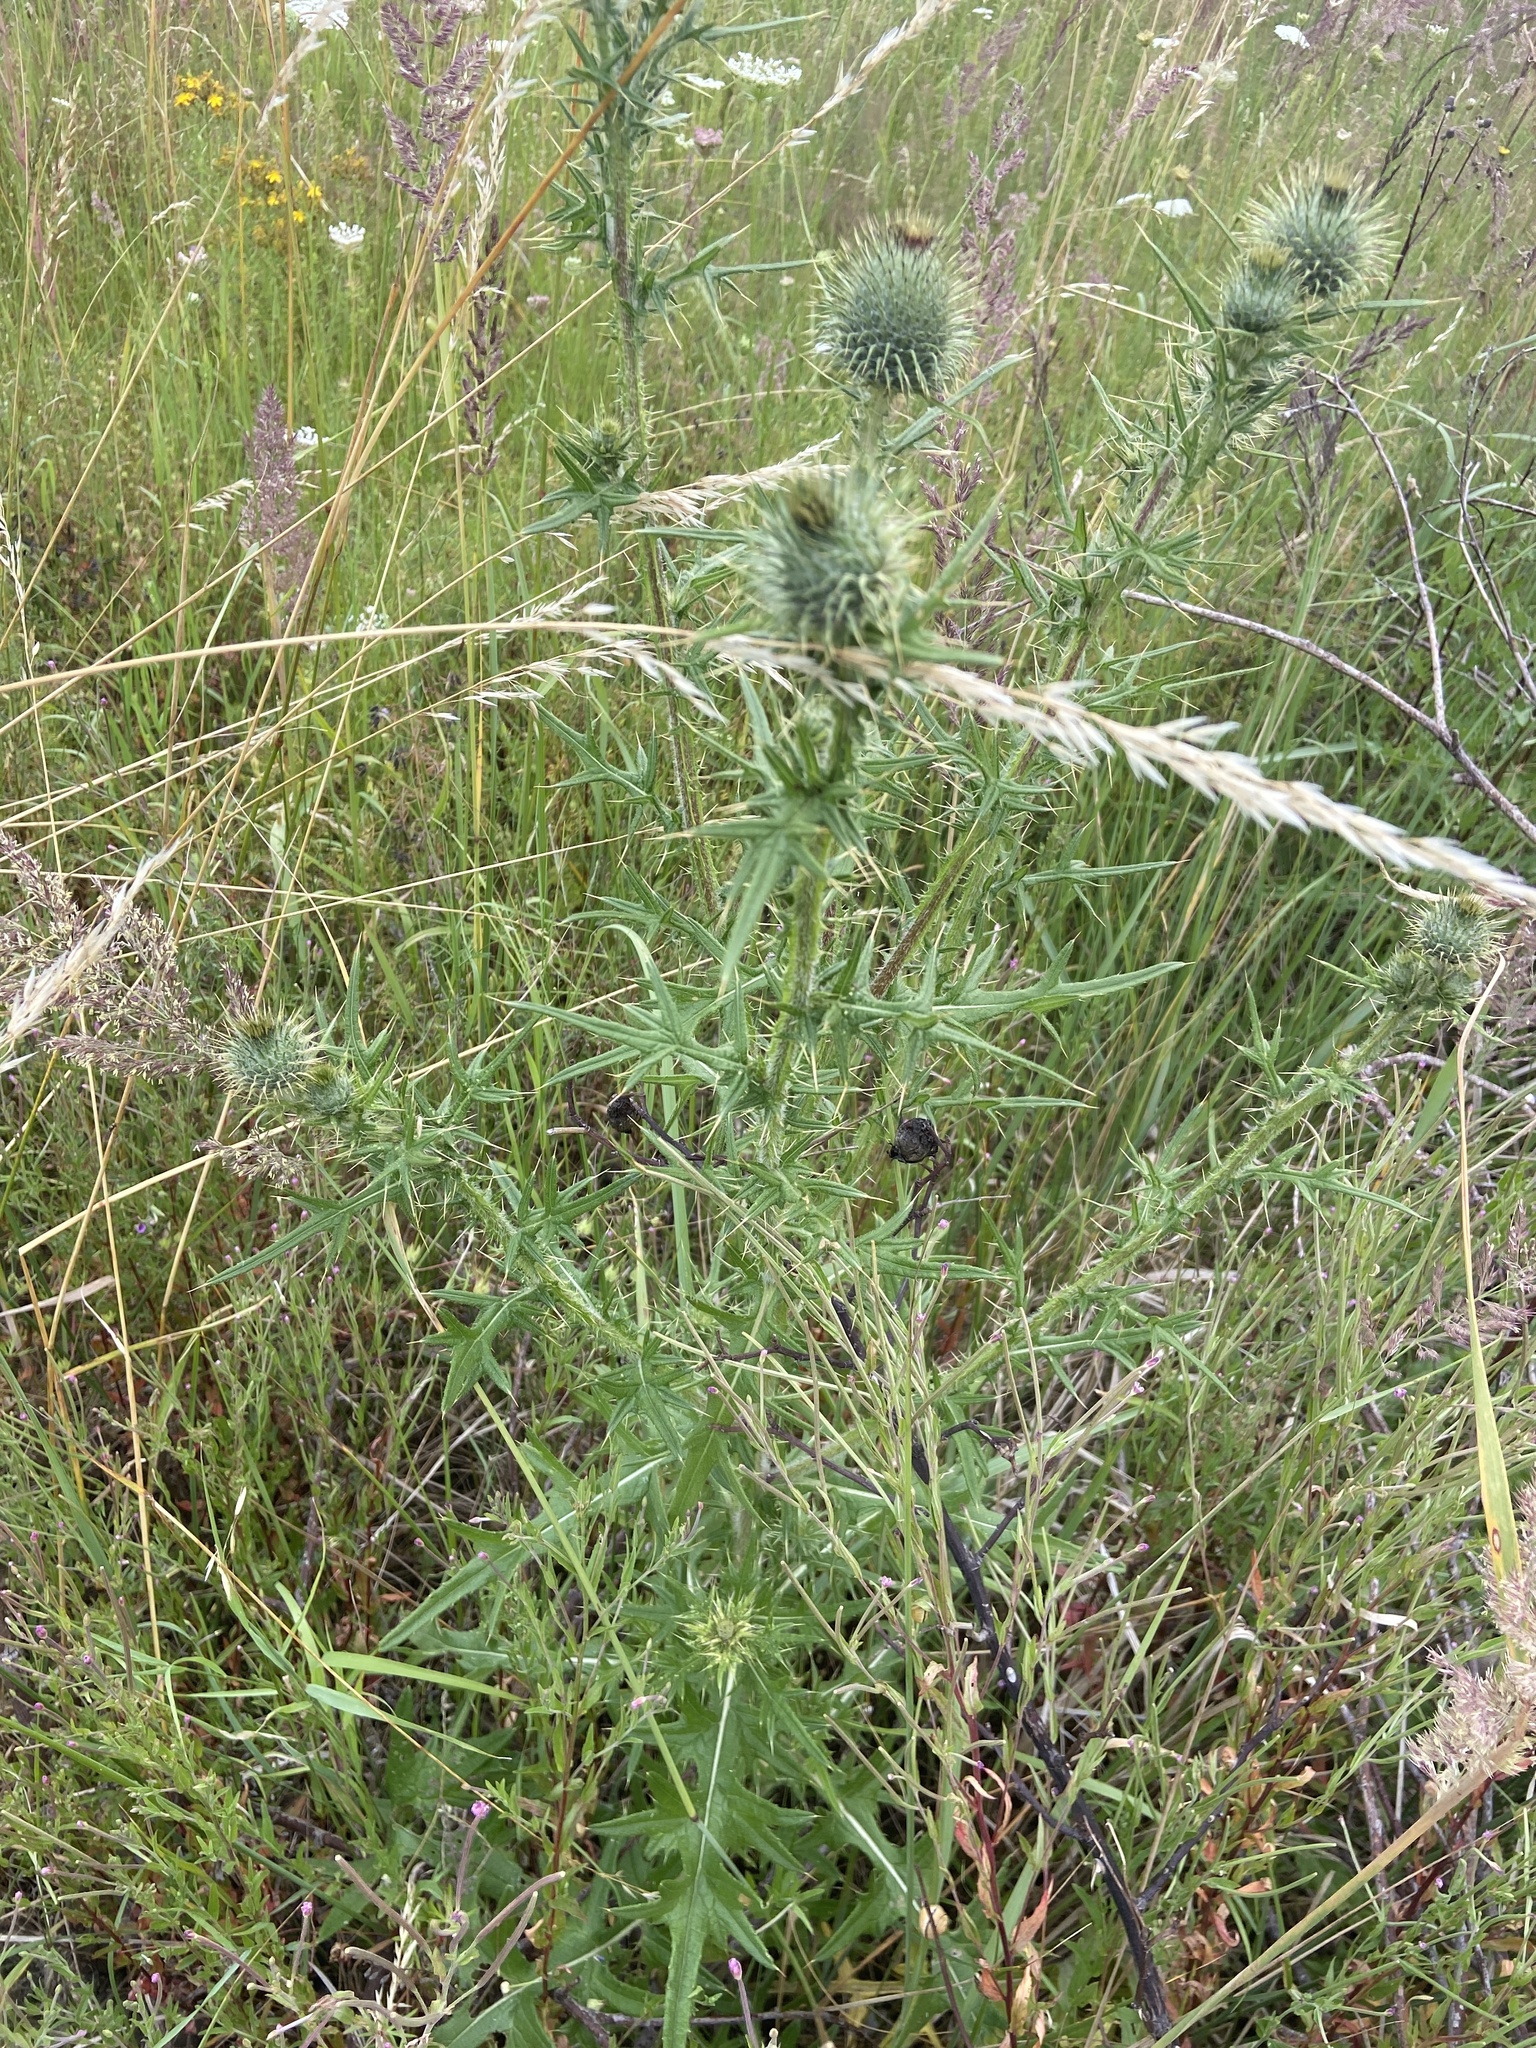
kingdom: Plantae
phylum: Tracheophyta
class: Magnoliopsida
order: Asterales
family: Asteraceae
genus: Cirsium
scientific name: Cirsium vulgare
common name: Bull thistle
